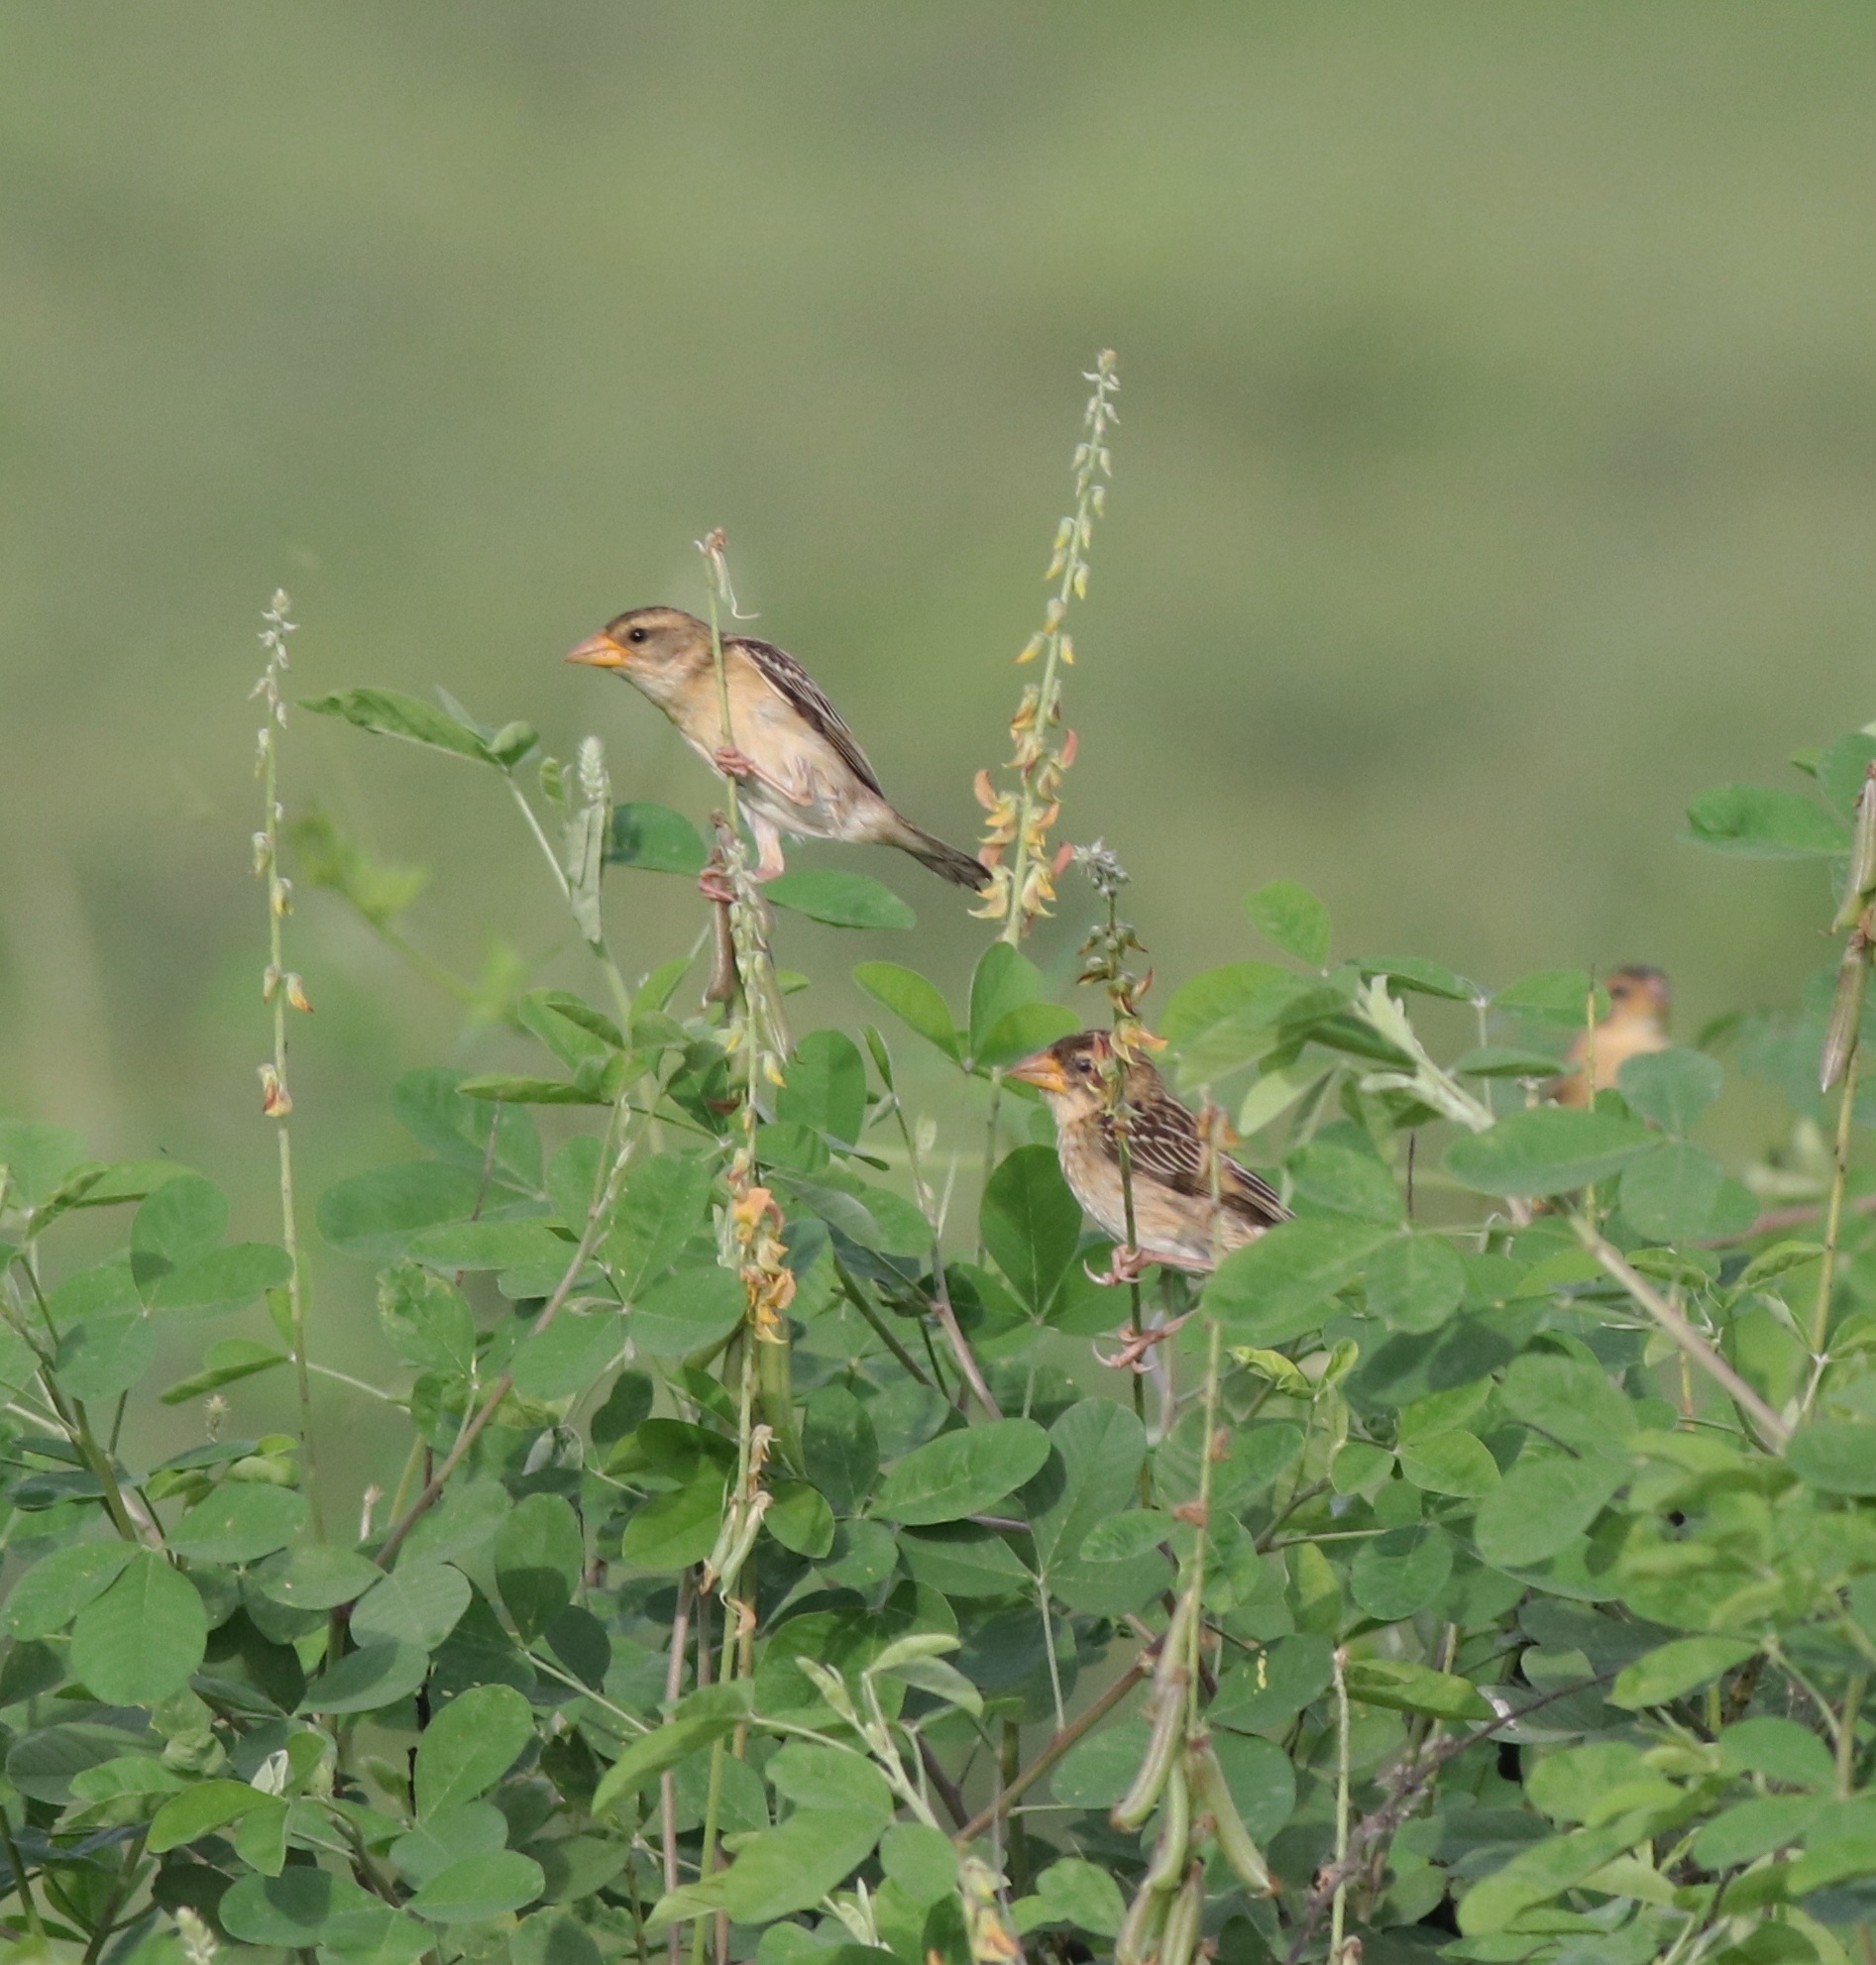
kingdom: Animalia
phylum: Chordata
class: Aves
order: Passeriformes
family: Ploceidae
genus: Ploceus
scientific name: Ploceus philippinus
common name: Baya weaver
